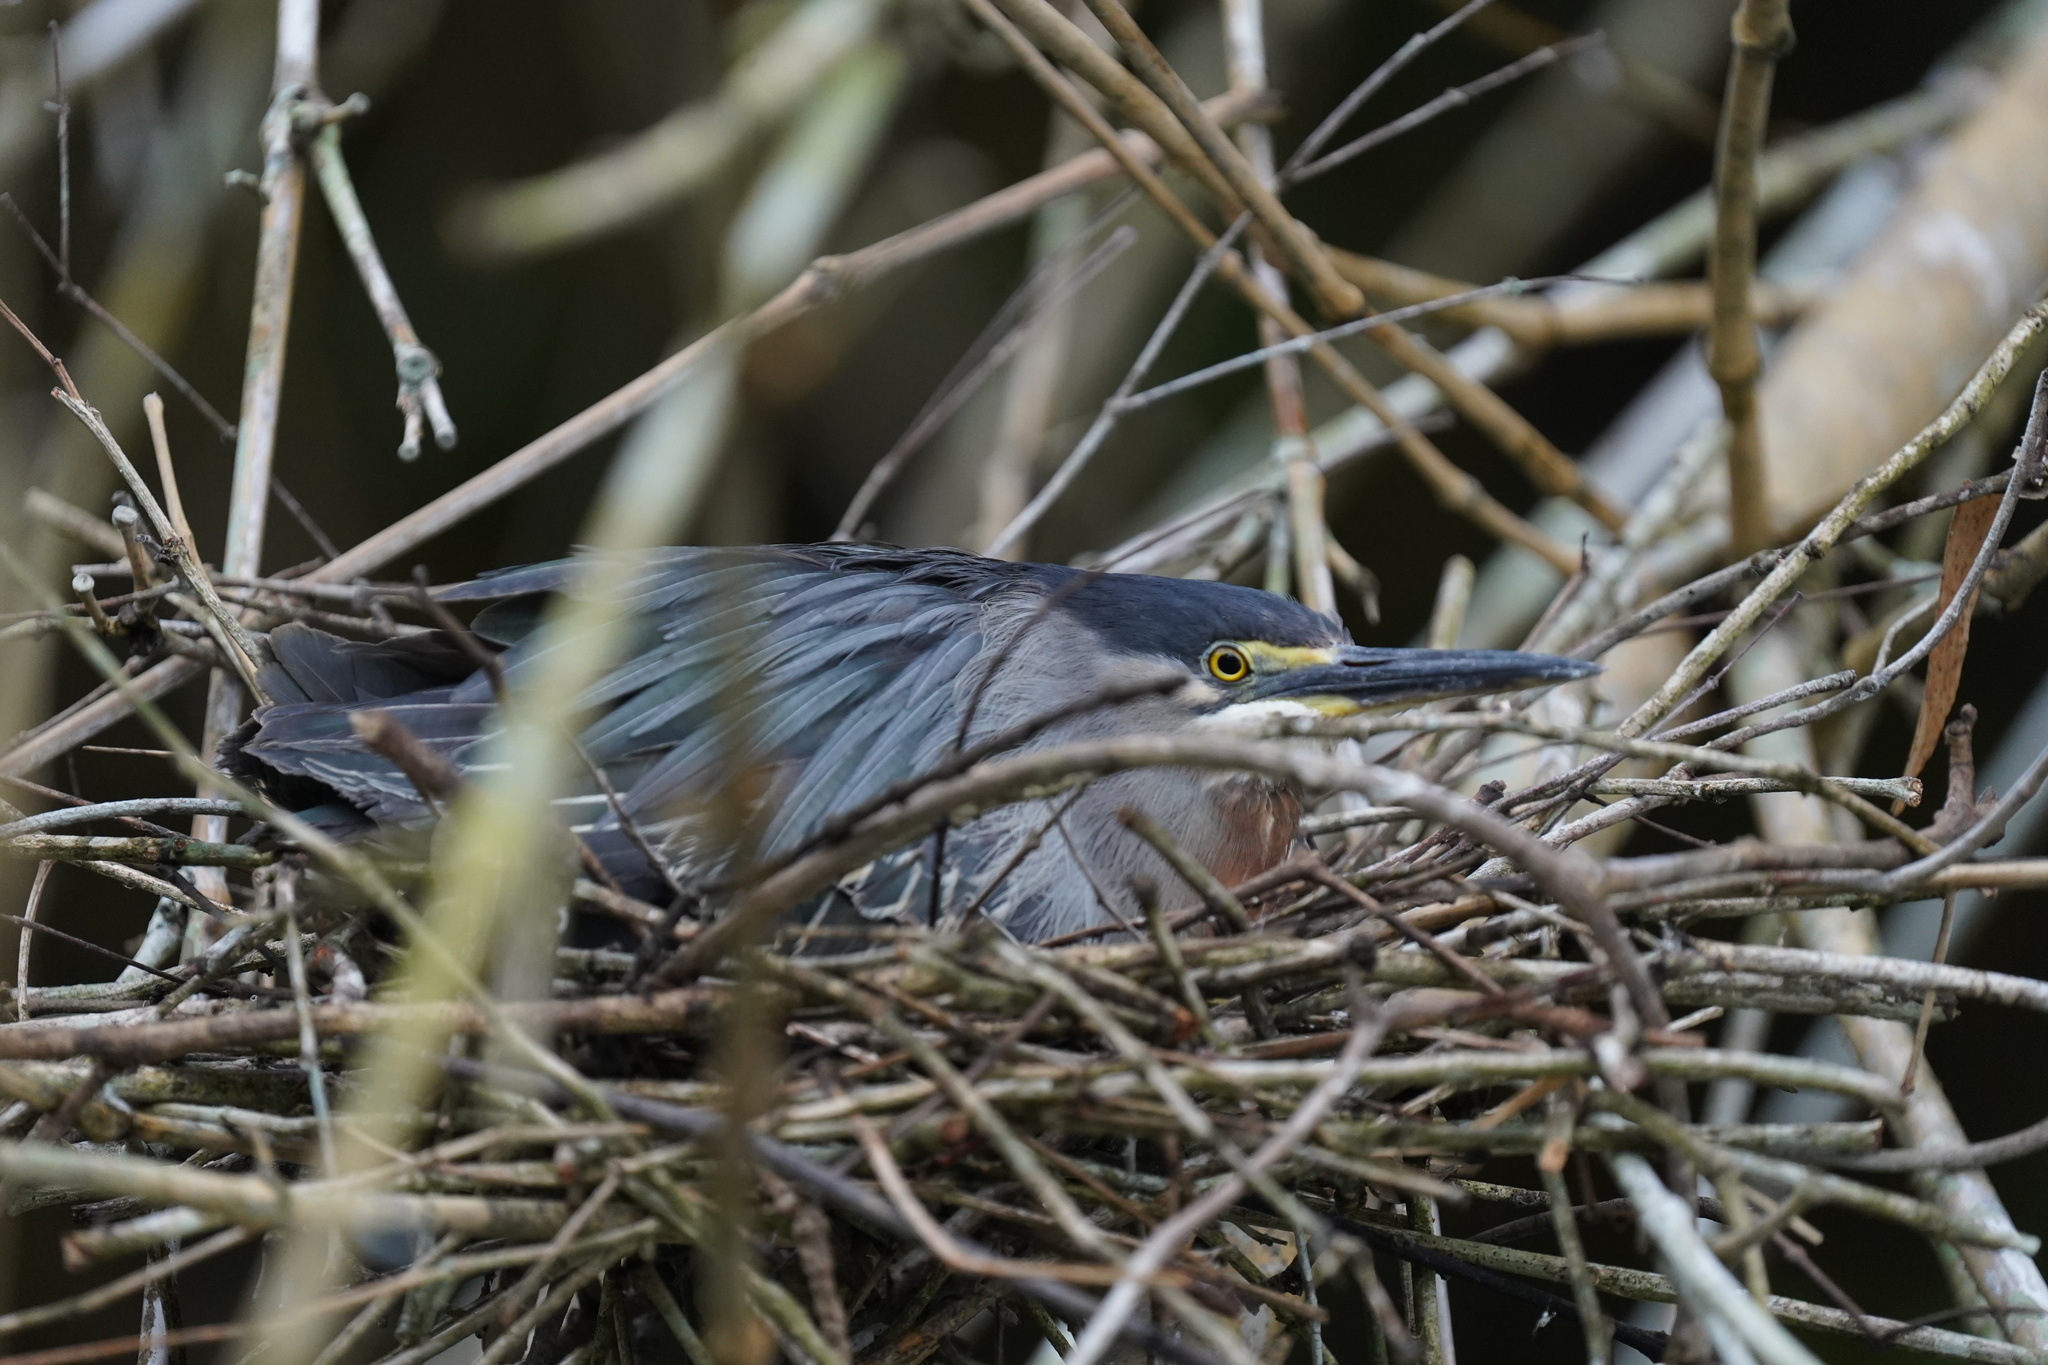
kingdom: Animalia
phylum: Chordata
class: Aves
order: Pelecaniformes
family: Ardeidae
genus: Butorides
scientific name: Butorides striata
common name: Striated heron
